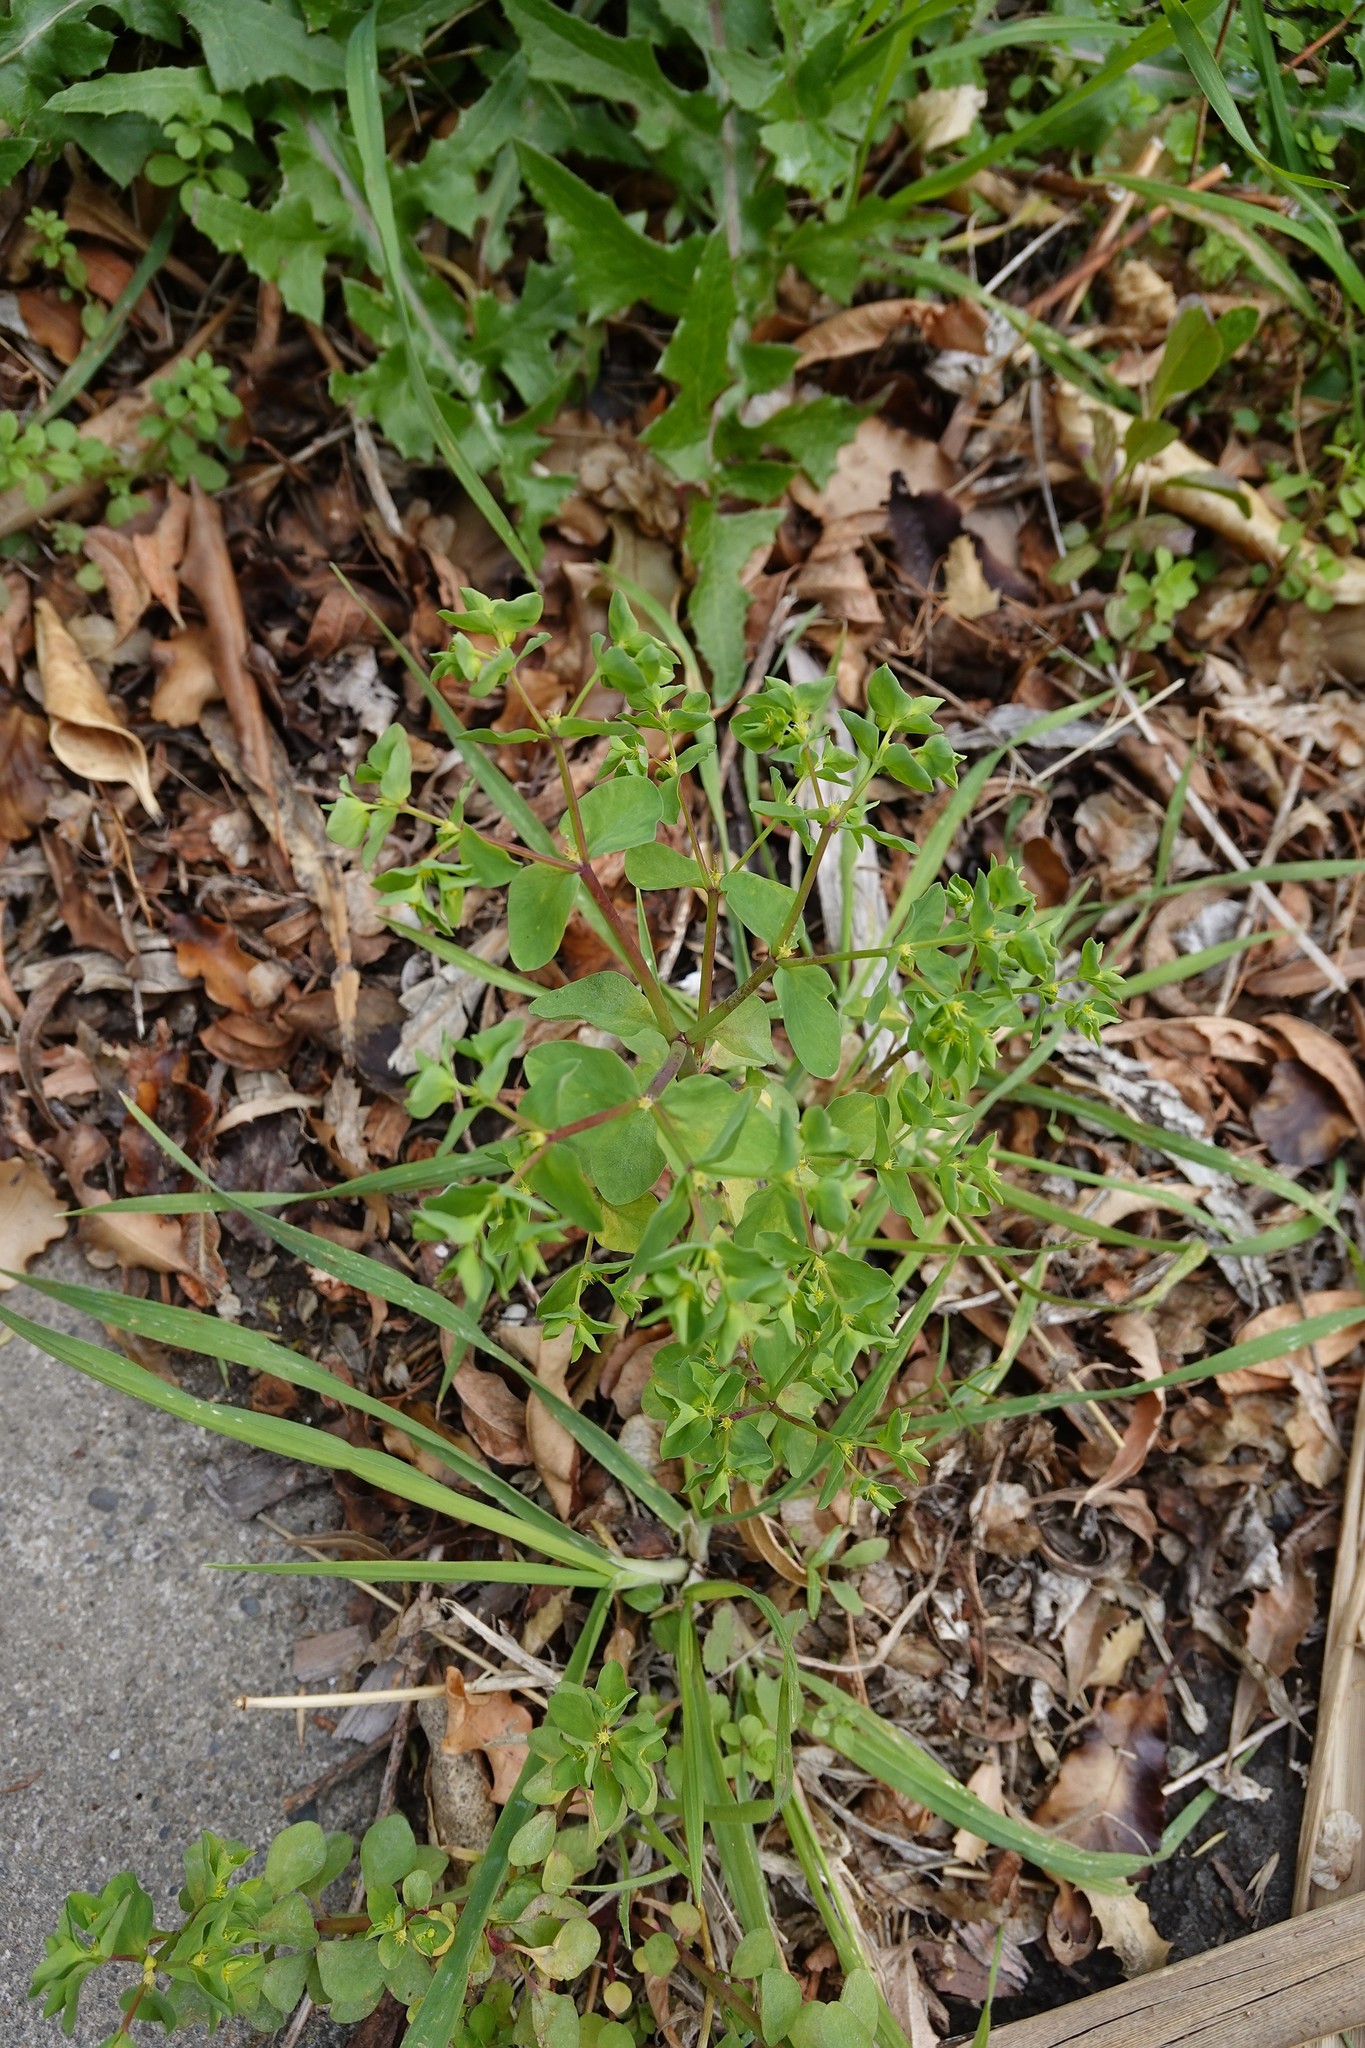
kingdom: Plantae
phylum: Tracheophyta
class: Magnoliopsida
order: Malpighiales
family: Euphorbiaceae
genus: Euphorbia
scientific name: Euphorbia peplus
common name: Petty spurge
